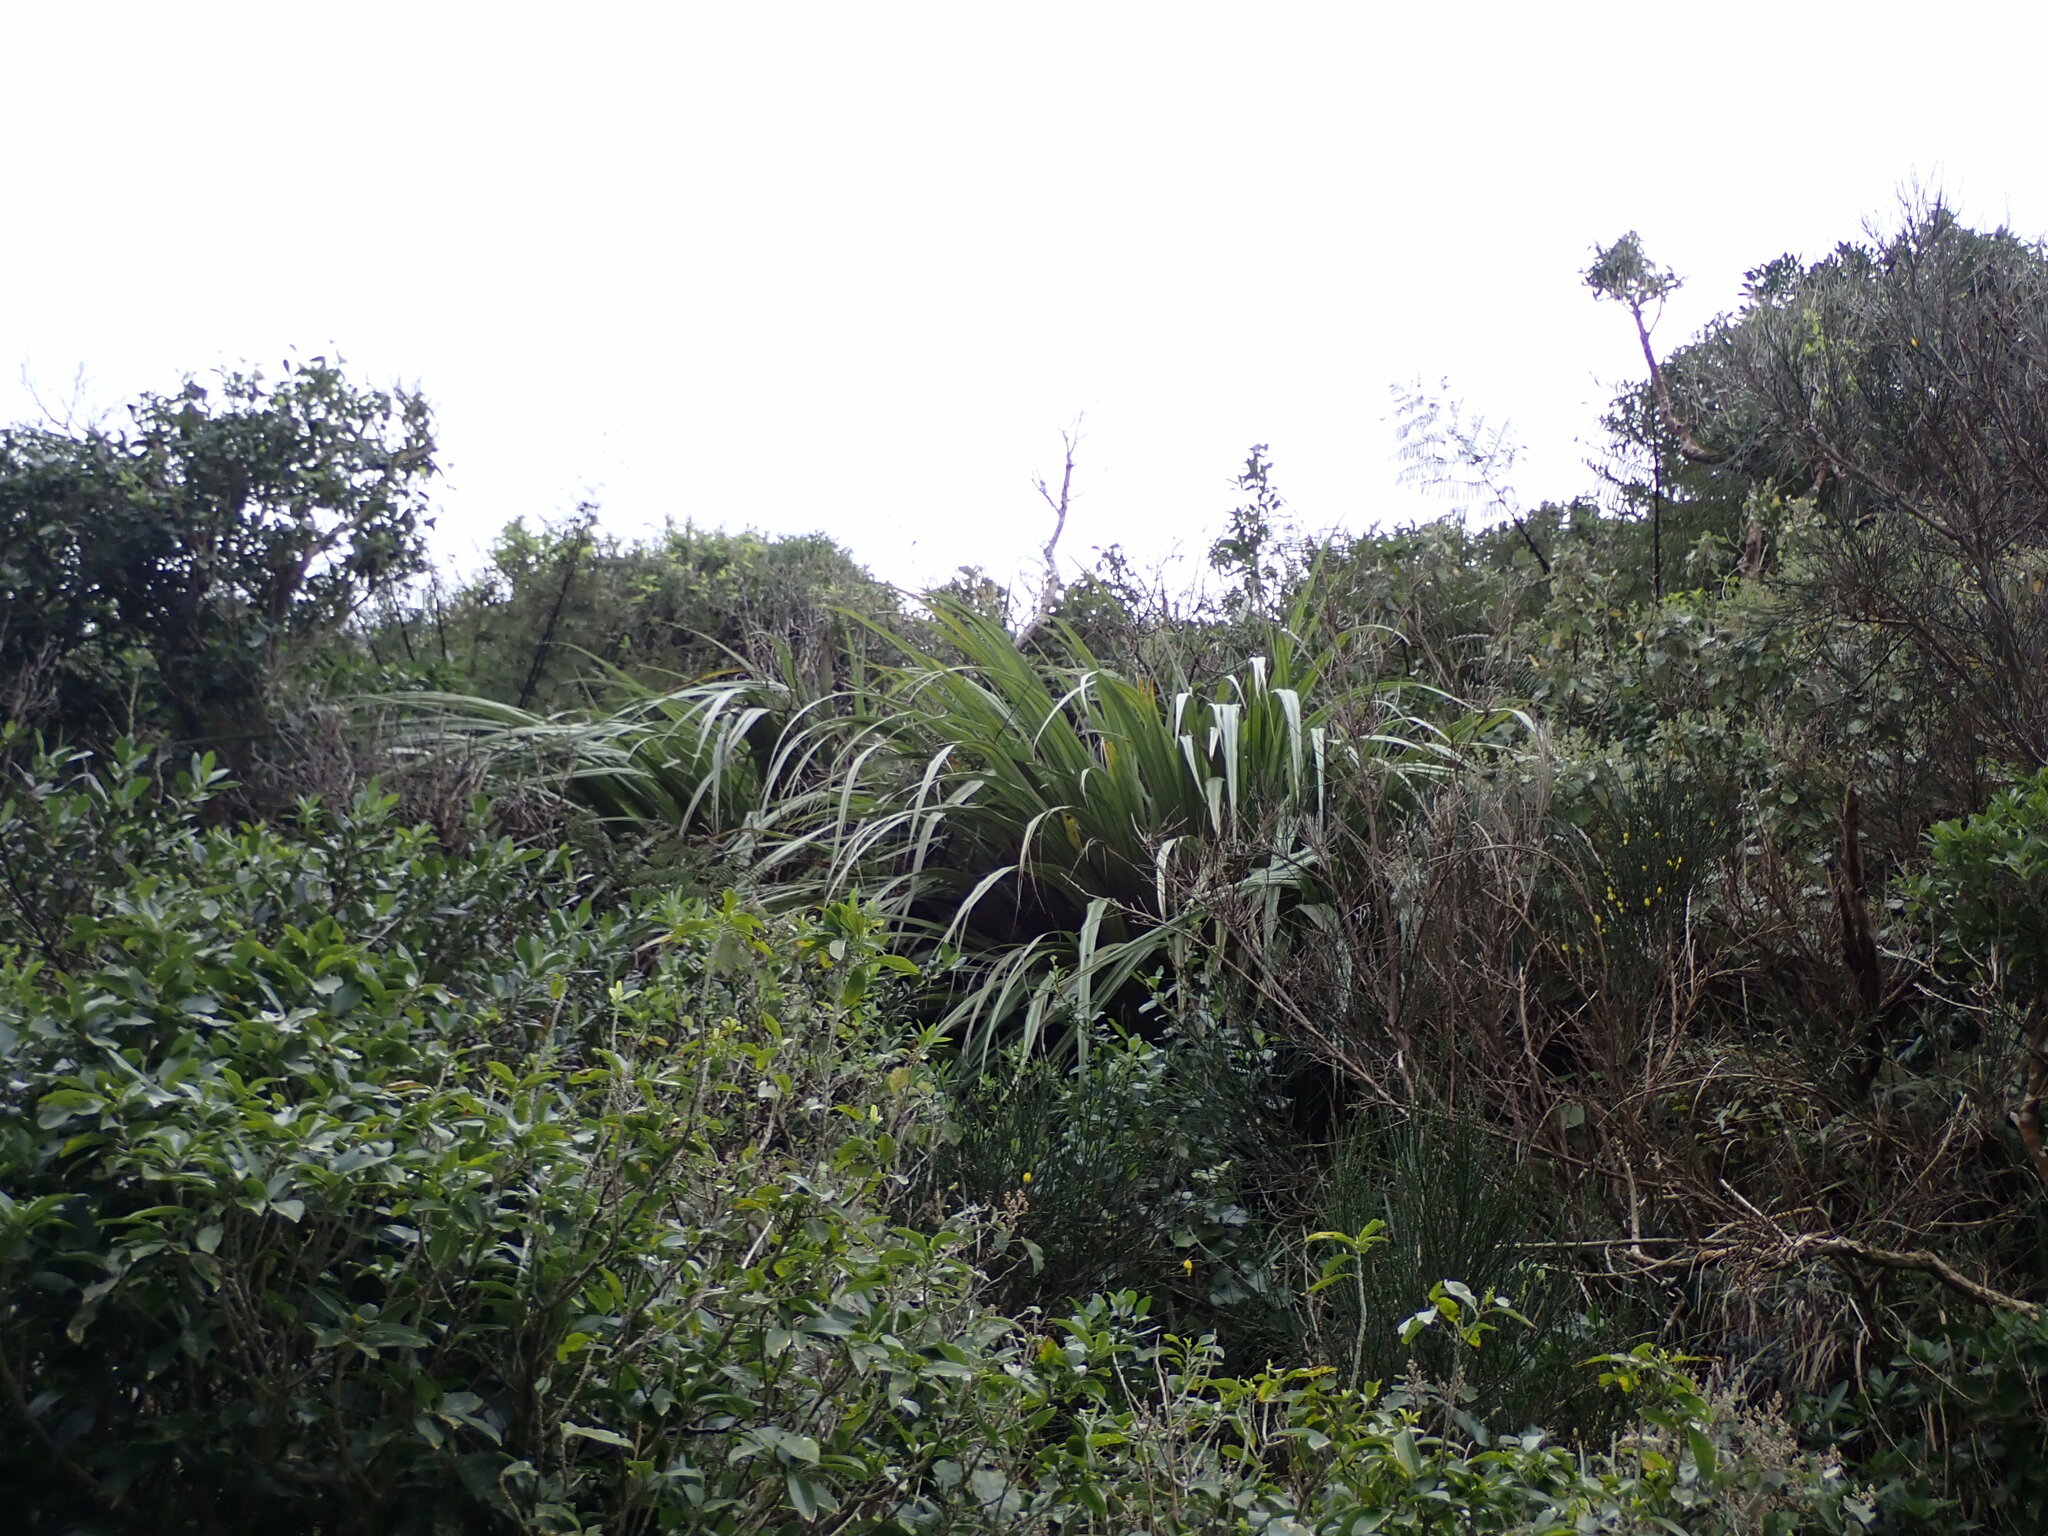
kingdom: Plantae
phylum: Tracheophyta
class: Liliopsida
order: Asparagales
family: Asteliaceae
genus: Astelia
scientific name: Astelia fragrans
